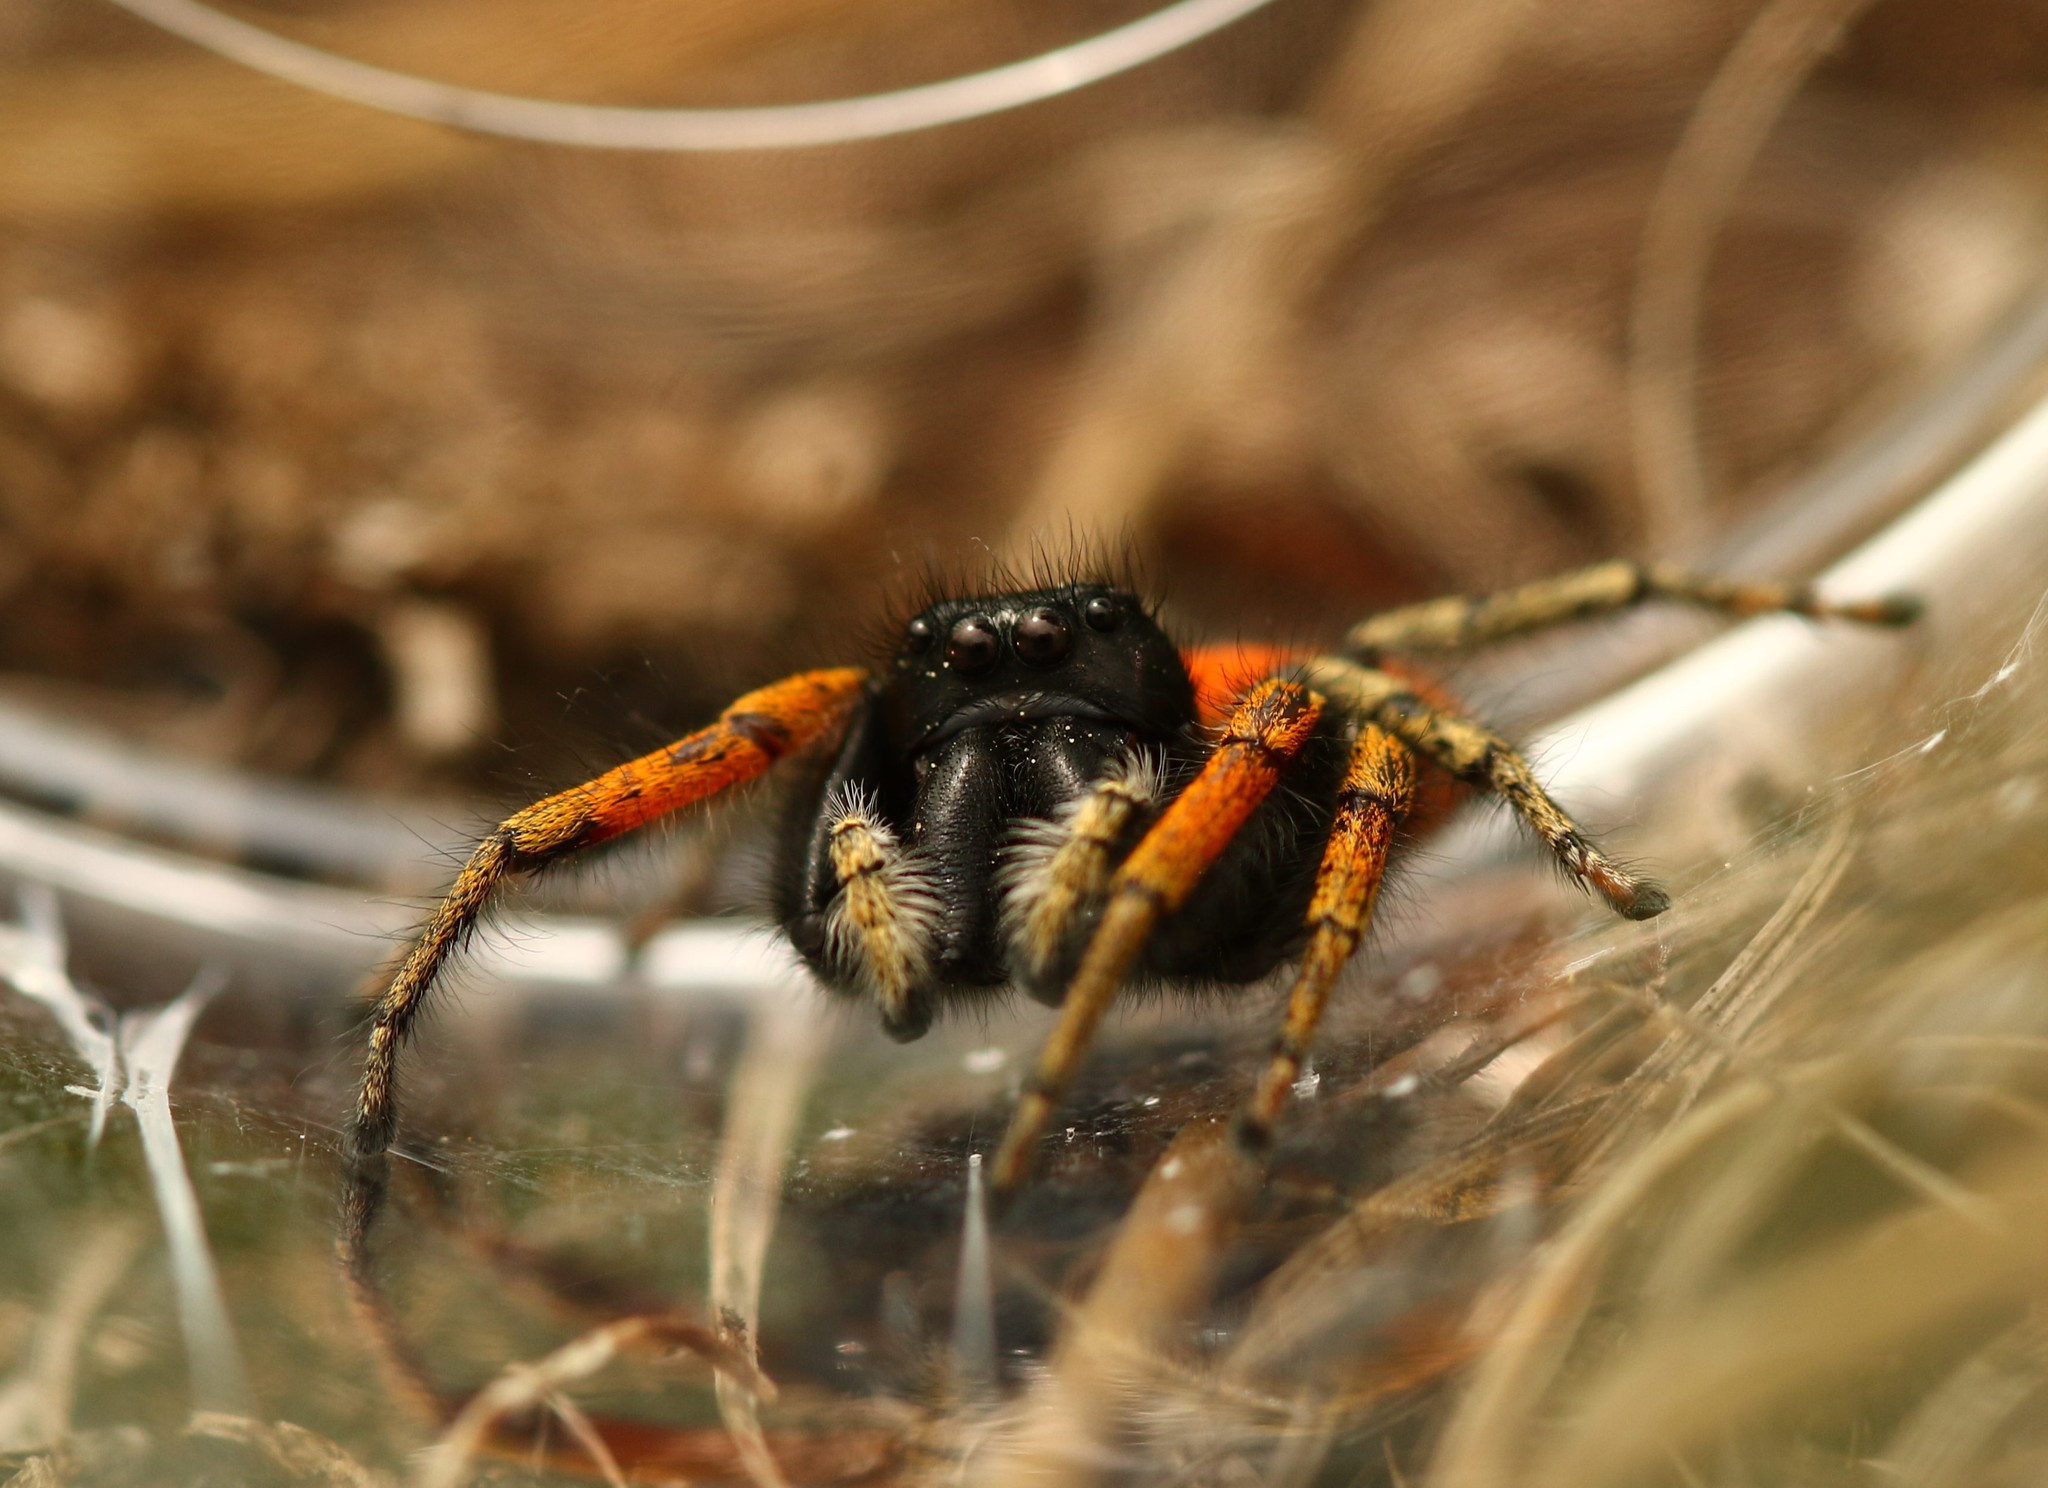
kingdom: Animalia
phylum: Arthropoda
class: Arachnida
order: Araneae
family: Salticidae
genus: Philaeus
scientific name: Philaeus chrysops
